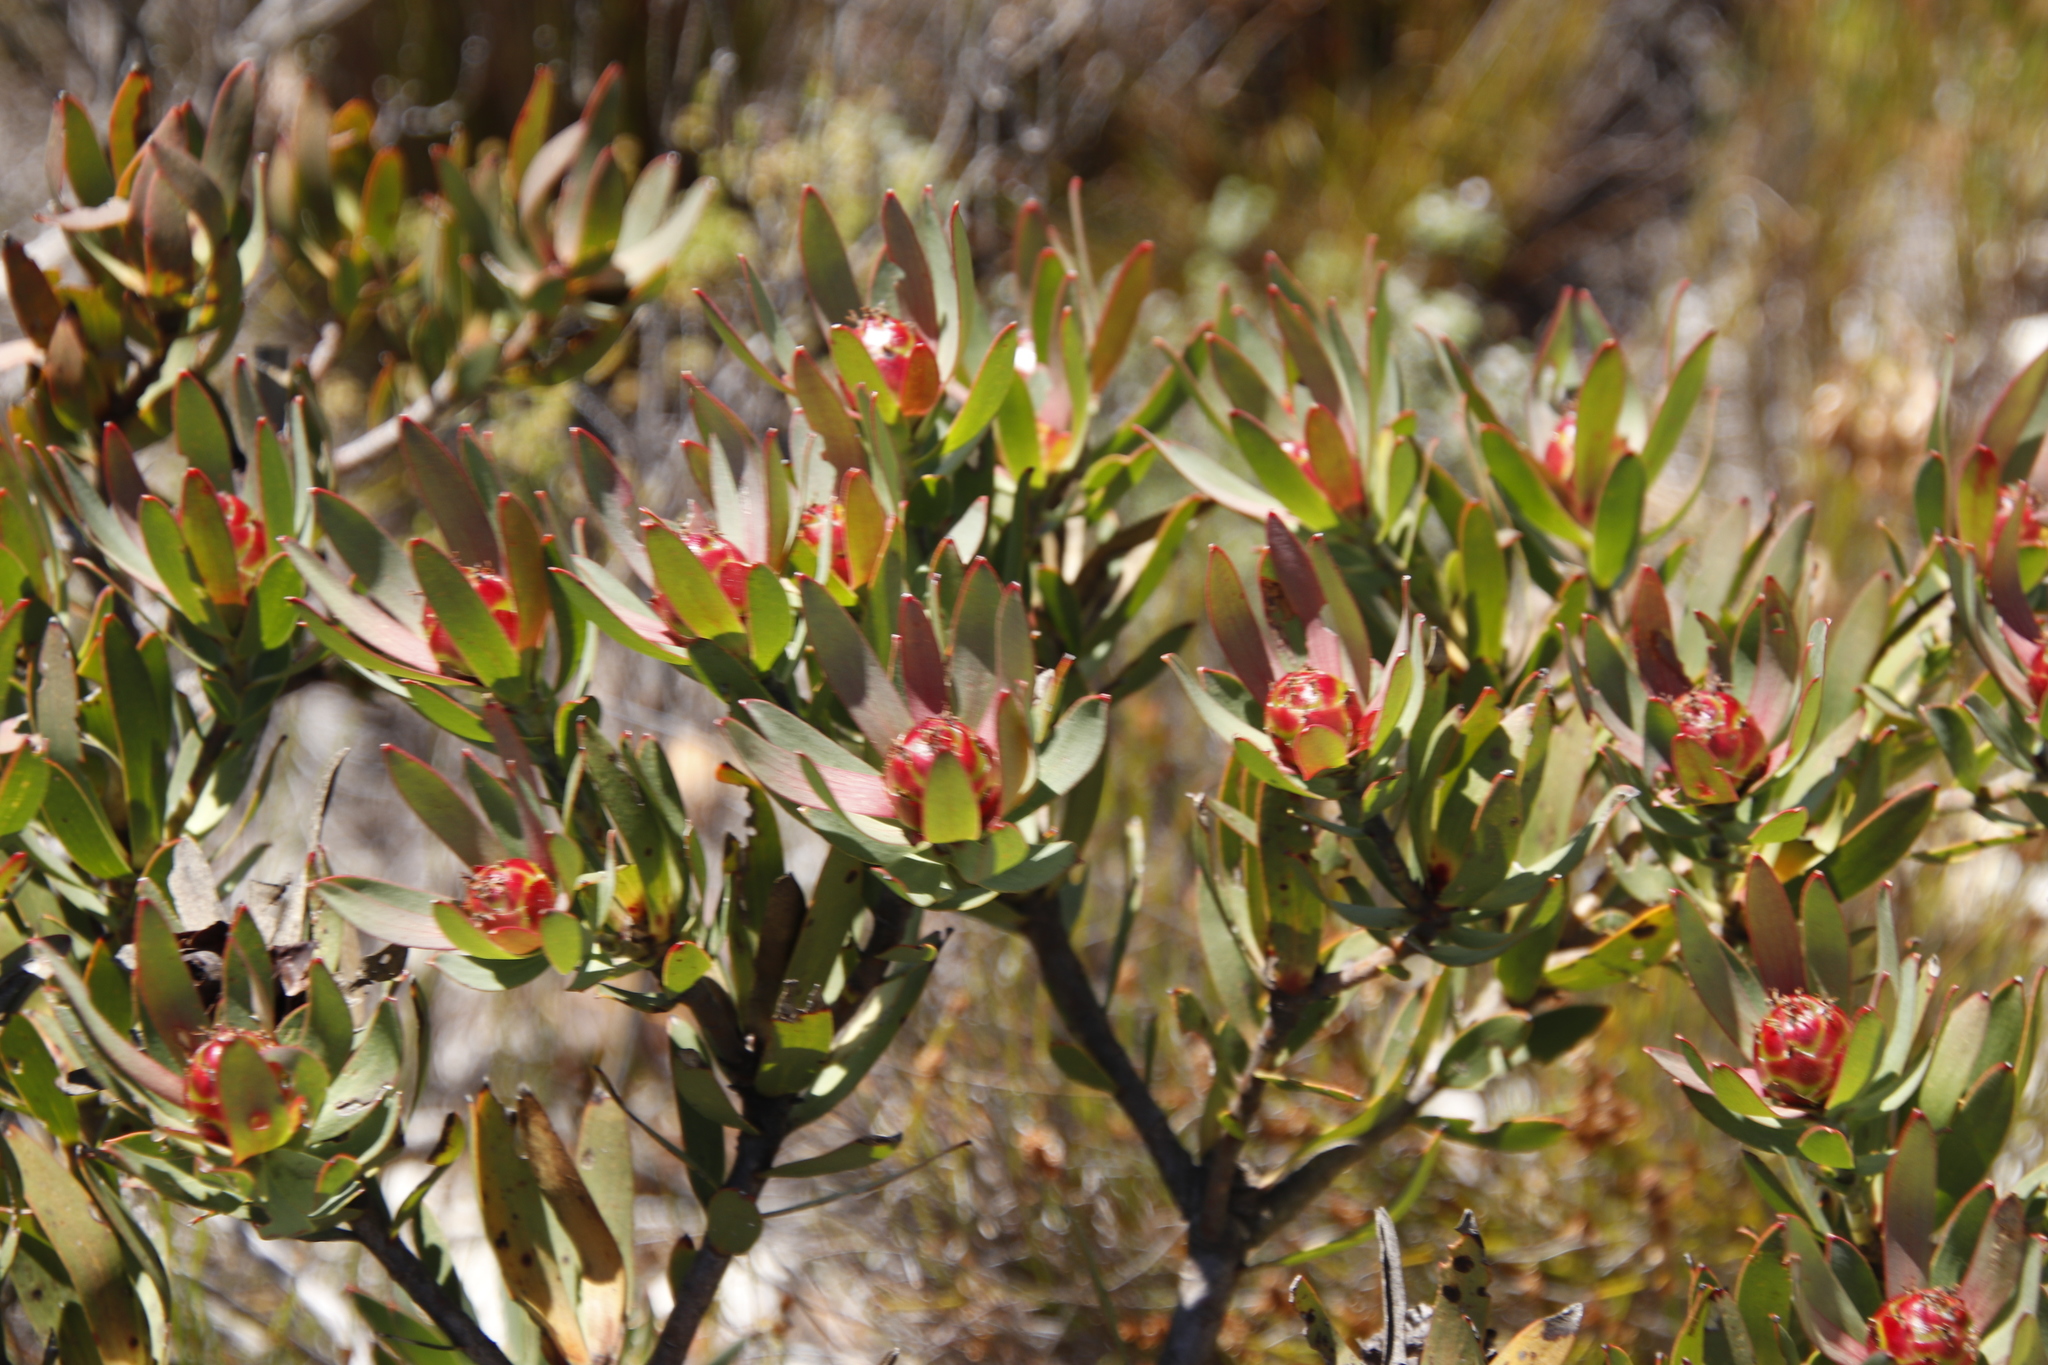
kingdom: Plantae
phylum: Tracheophyta
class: Magnoliopsida
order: Proteales
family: Proteaceae
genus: Leucadendron
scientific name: Leucadendron sessile
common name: Western sunbush
